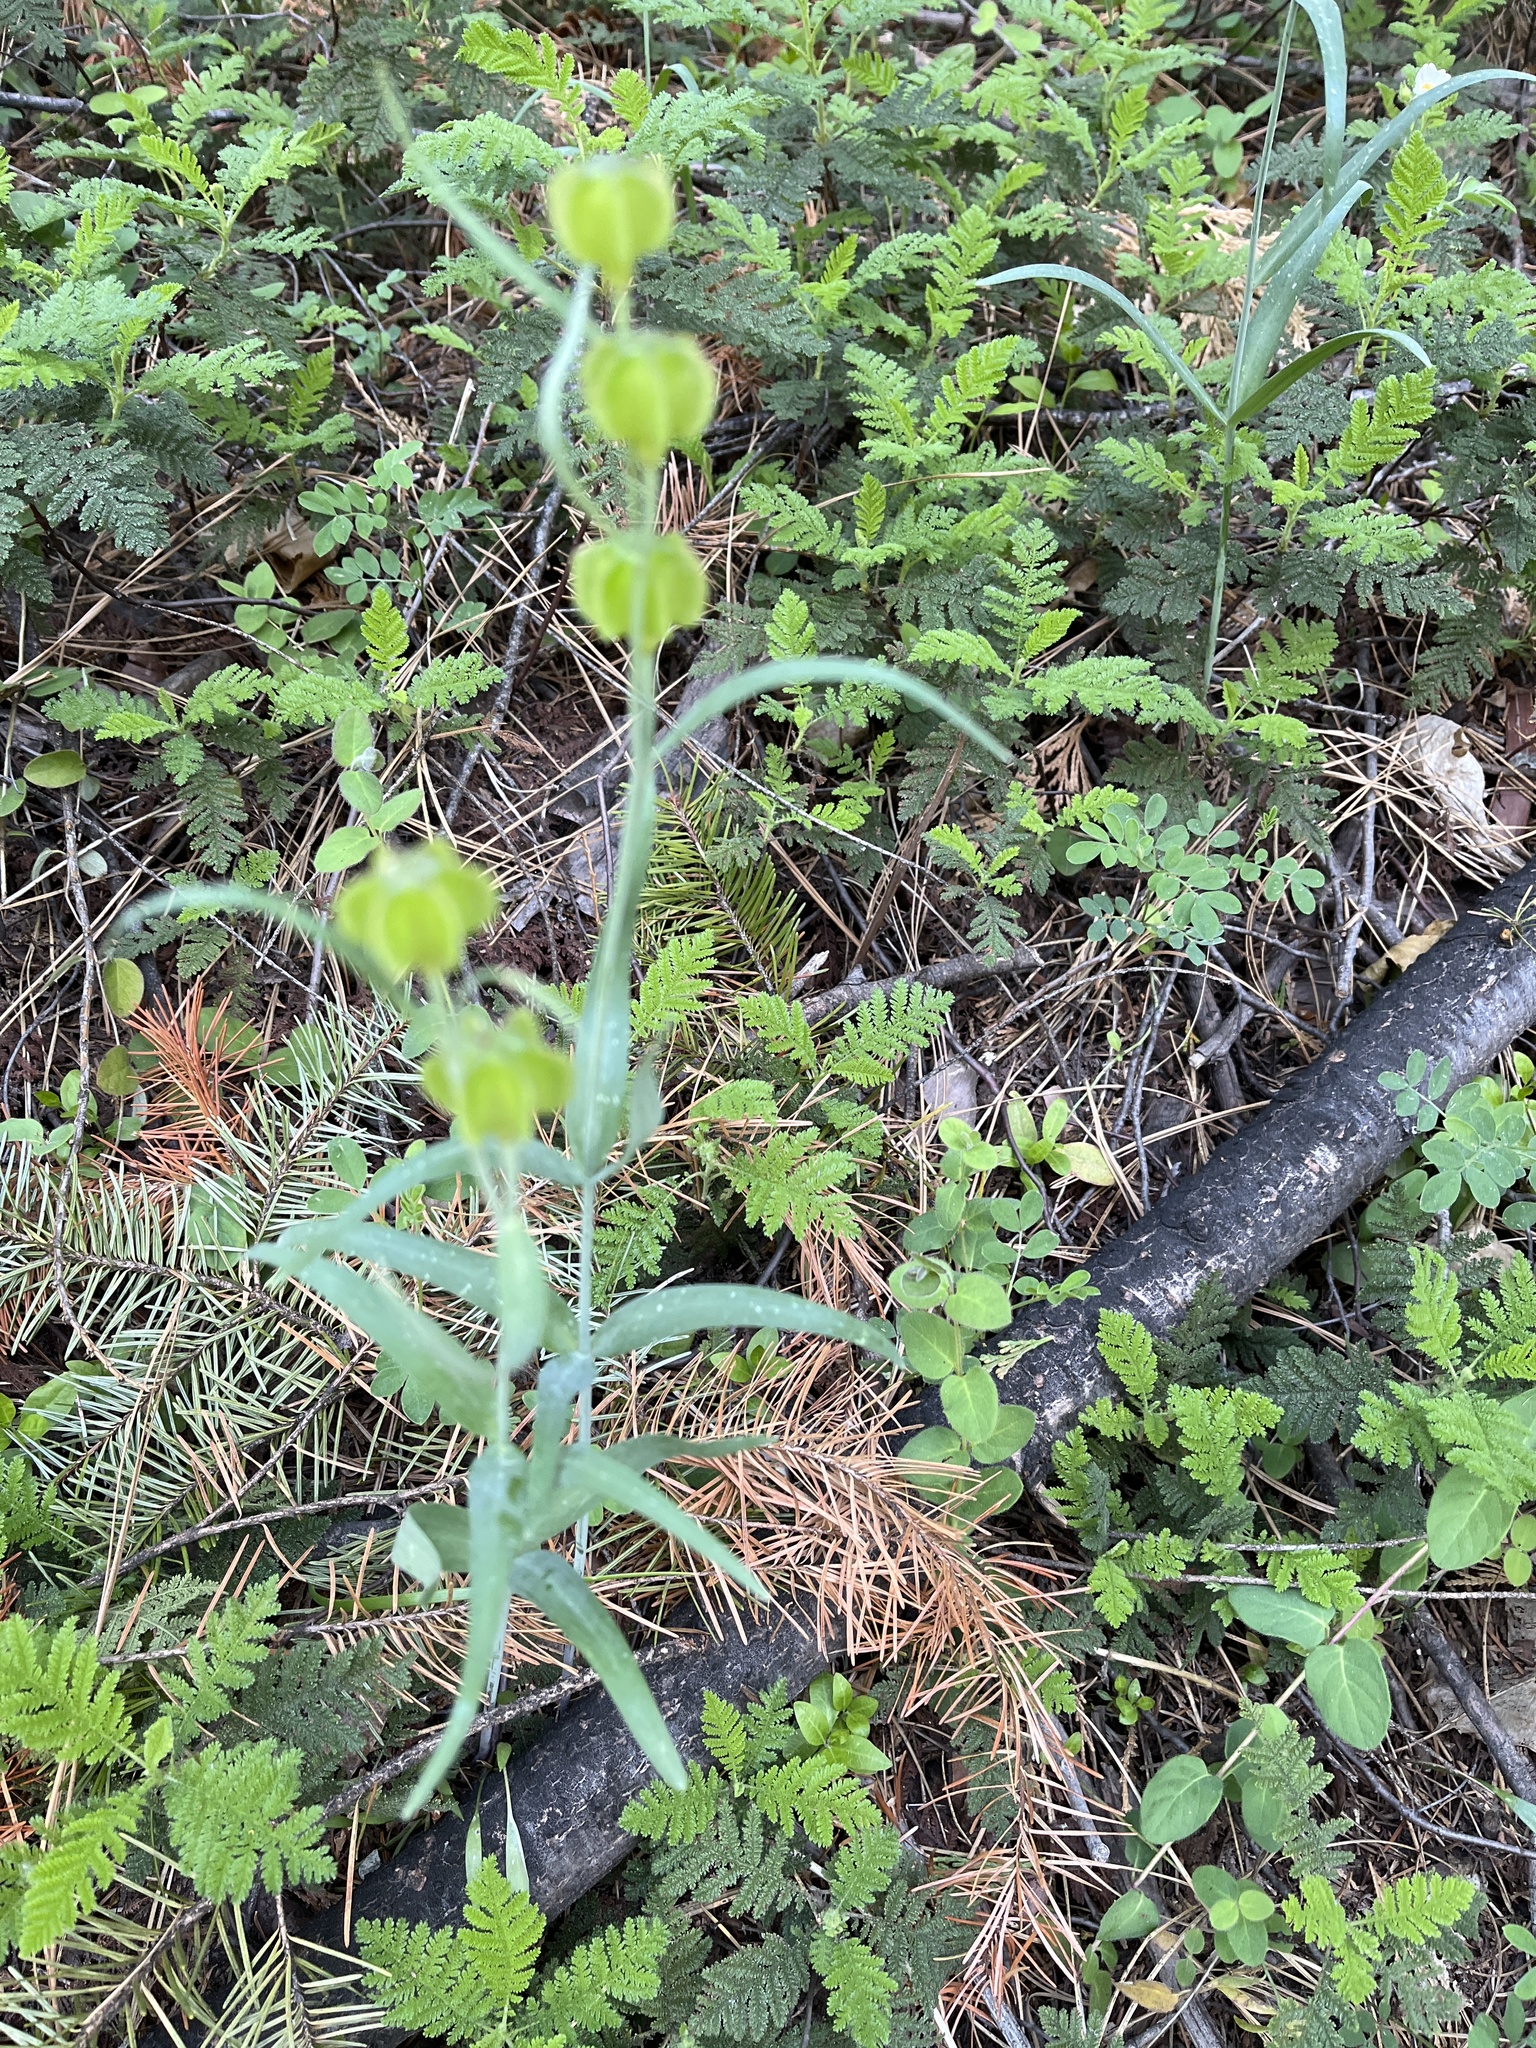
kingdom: Plantae
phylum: Tracheophyta
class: Liliopsida
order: Liliales
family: Liliaceae
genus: Fritillaria
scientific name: Fritillaria micrantha
